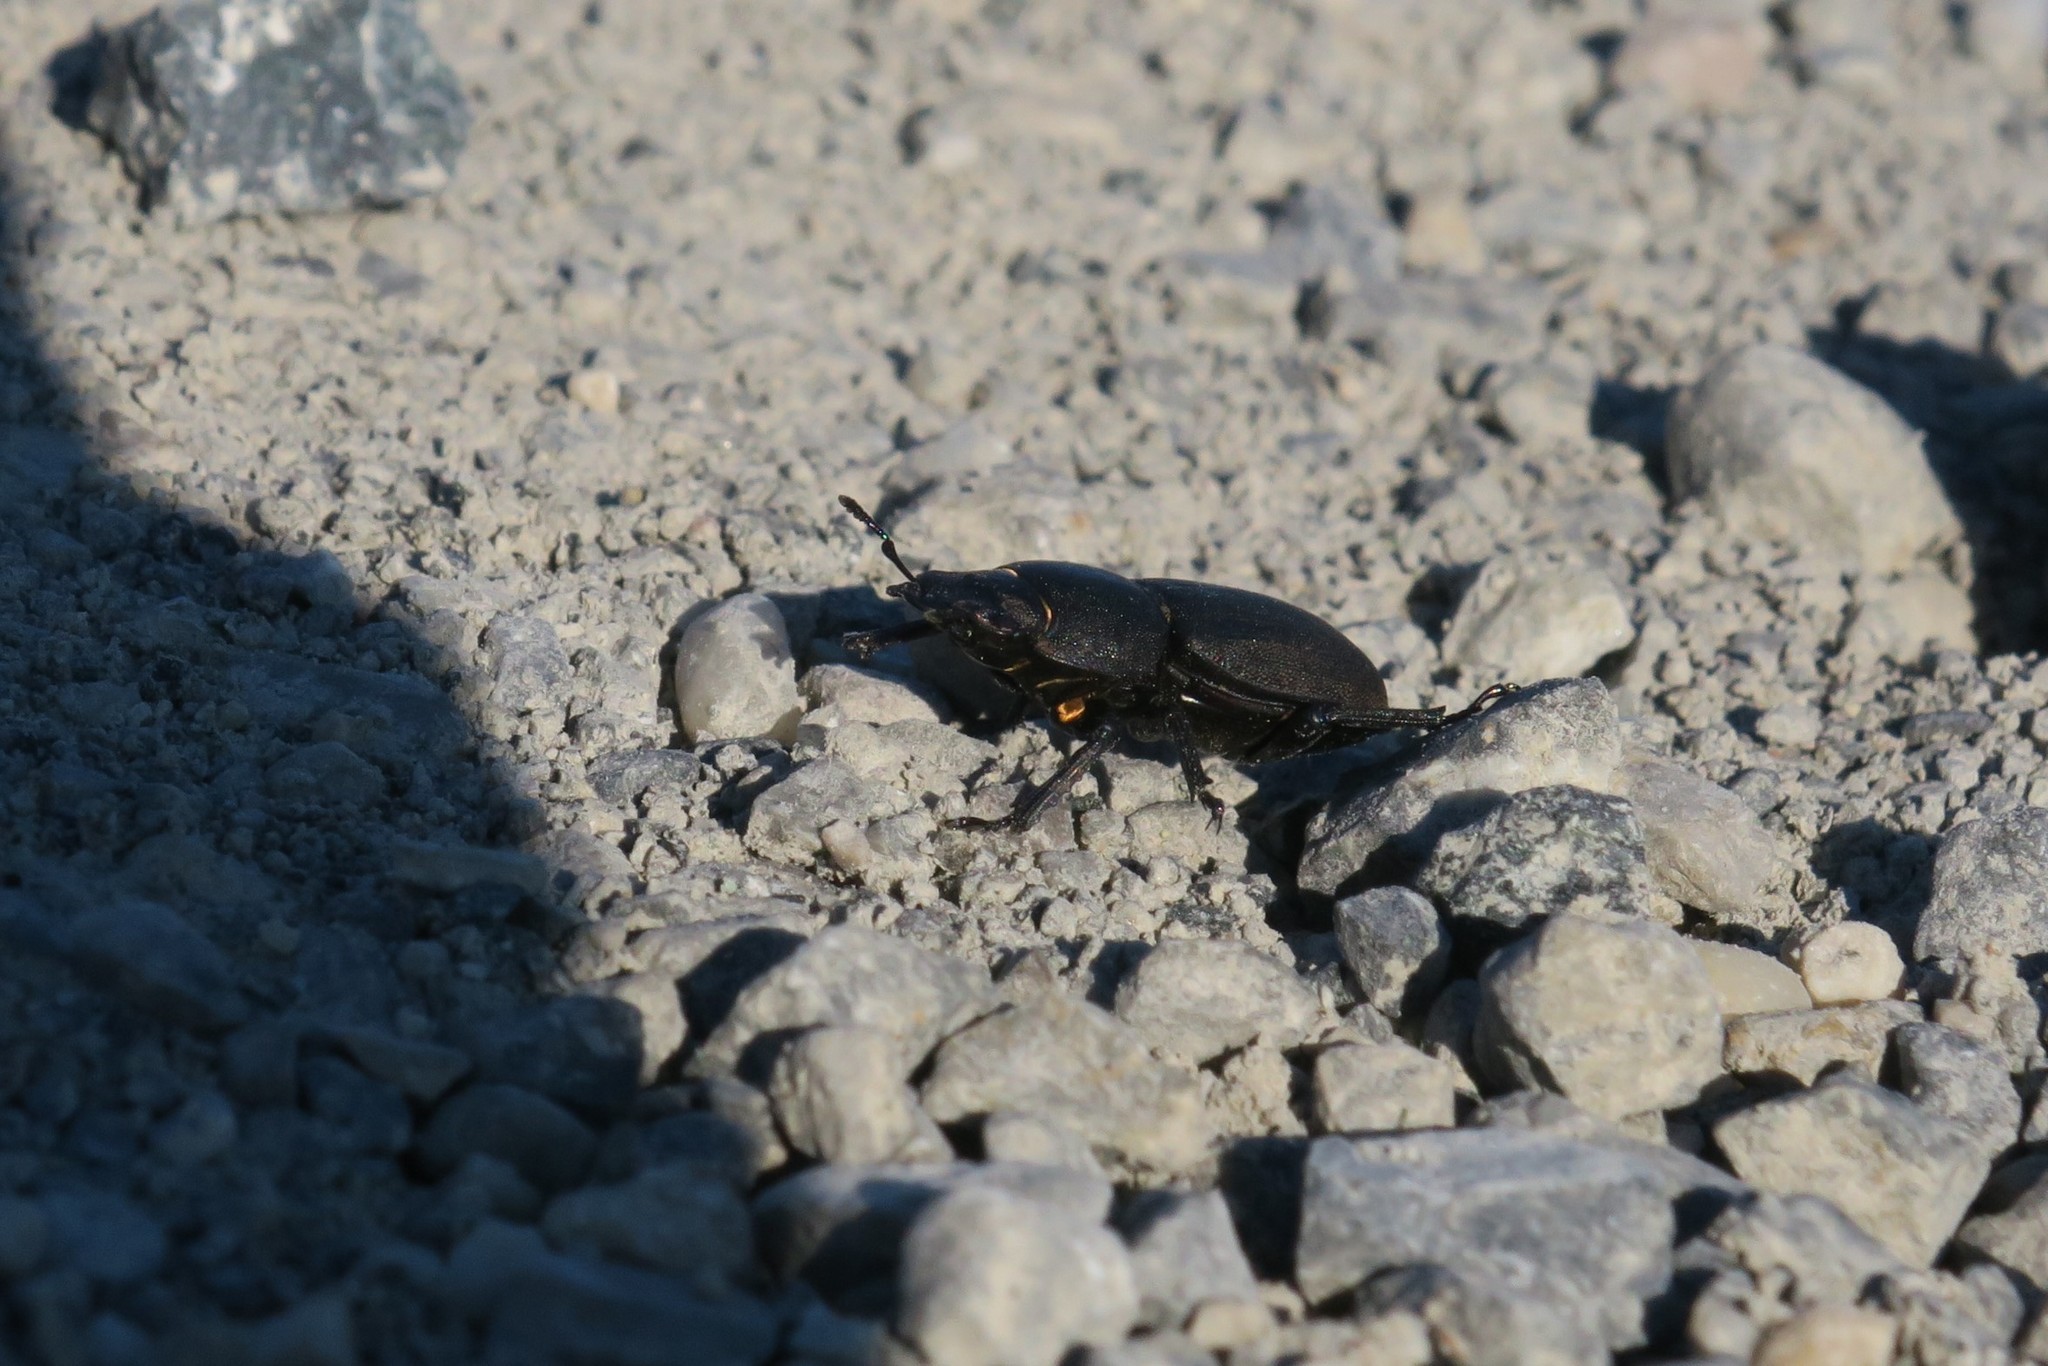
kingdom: Animalia
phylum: Arthropoda
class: Insecta
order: Coleoptera
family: Lucanidae
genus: Dorcus
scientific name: Dorcus parallelipipedus
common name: Lesser stag beetle
